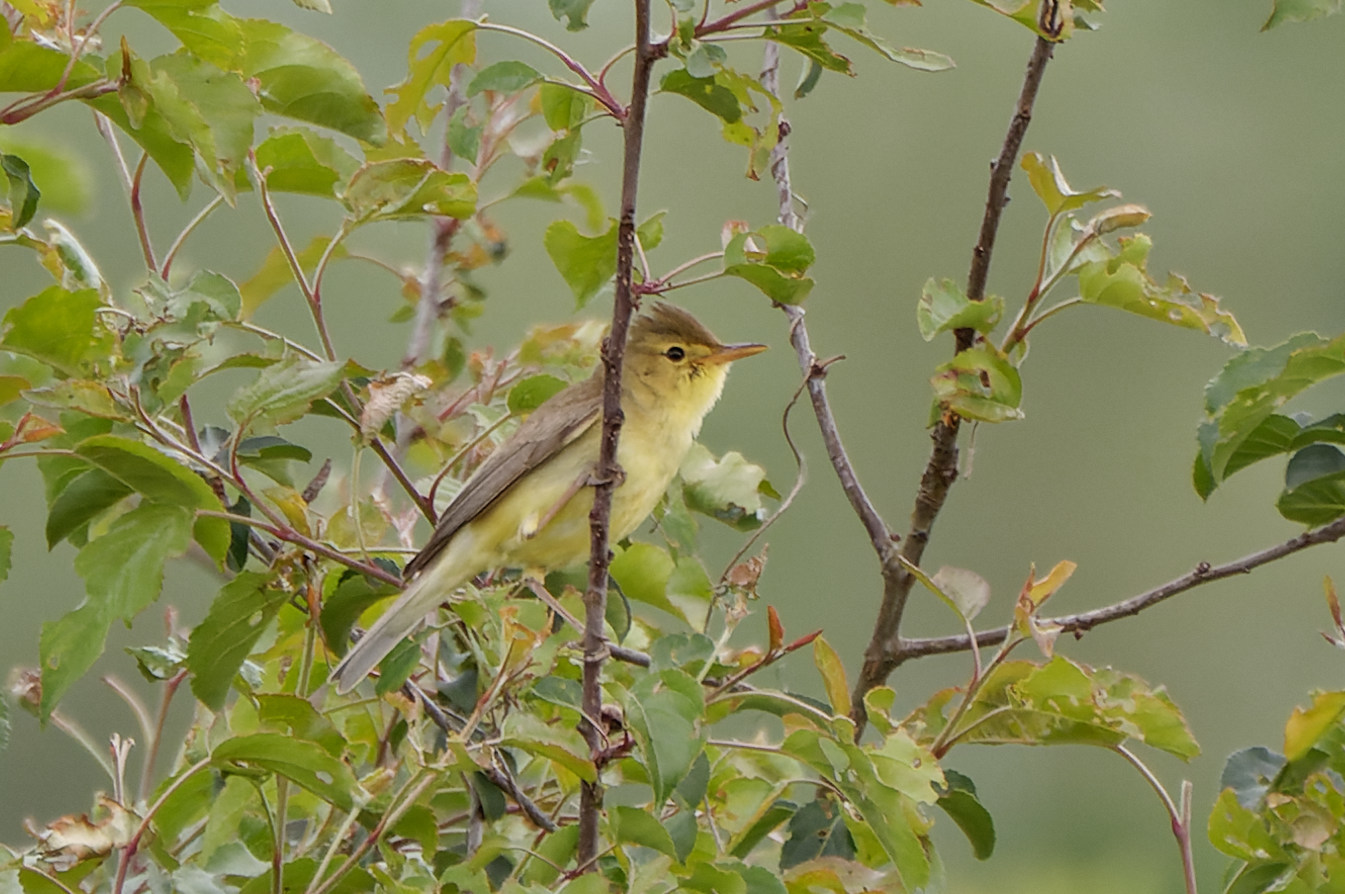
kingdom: Animalia
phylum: Chordata
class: Aves
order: Passeriformes
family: Acrocephalidae
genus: Hippolais
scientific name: Hippolais polyglotta
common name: Melodious warbler
